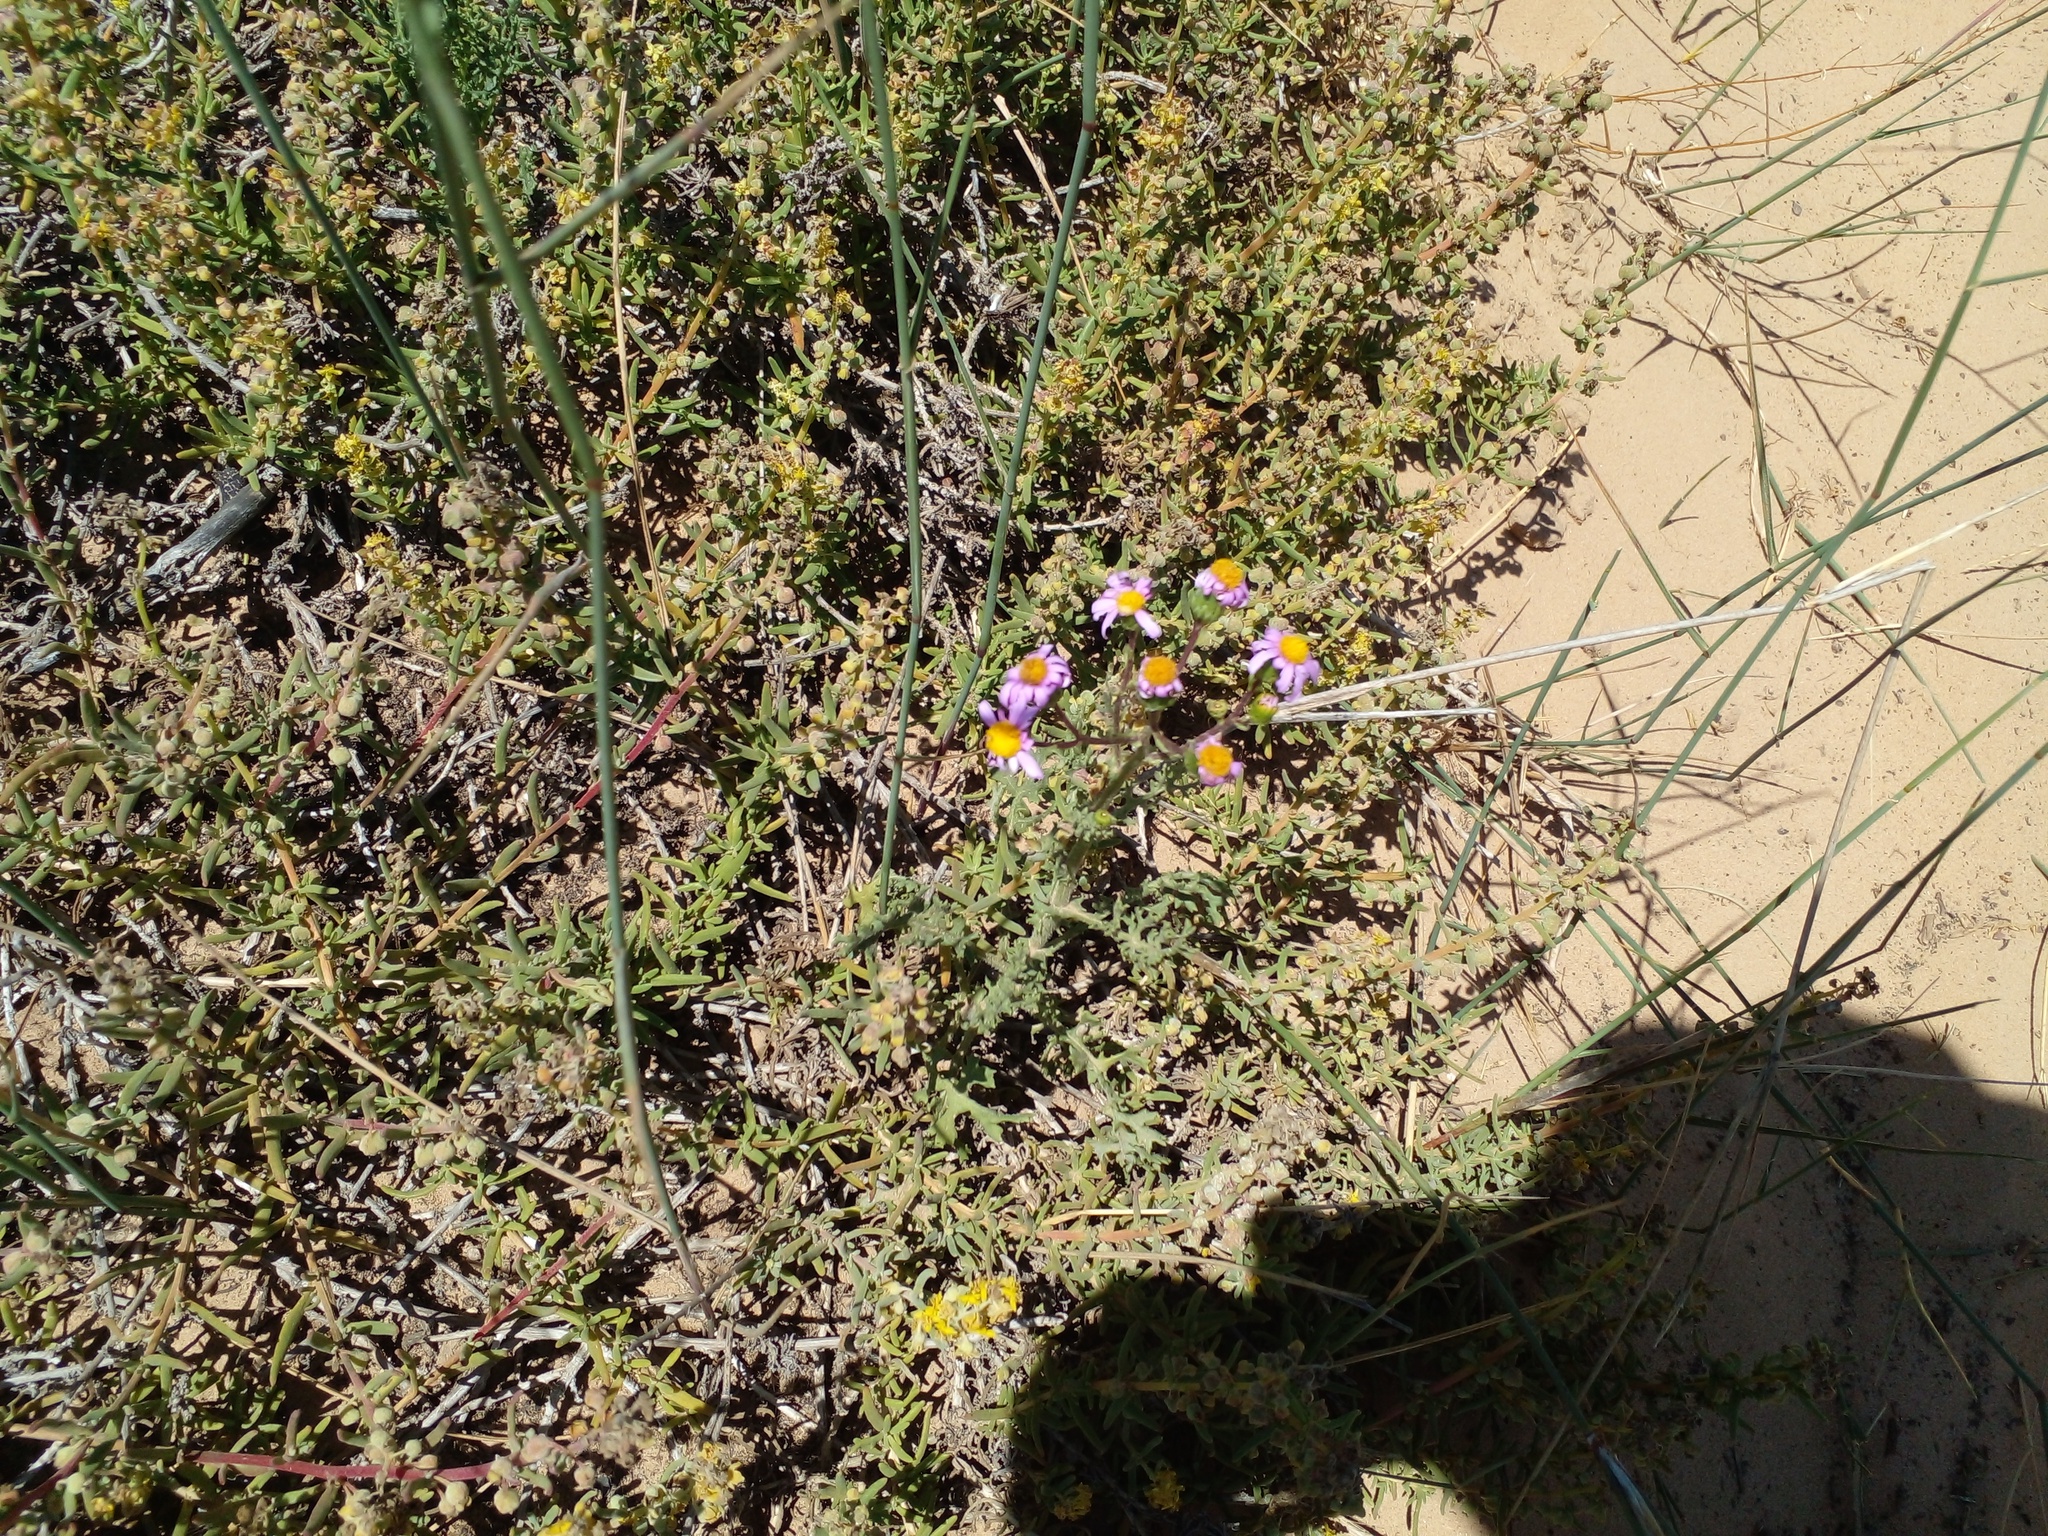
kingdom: Plantae
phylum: Tracheophyta
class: Magnoliopsida
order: Caryophyllales
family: Aizoaceae
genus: Tetragonia
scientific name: Tetragonia fruticosa
